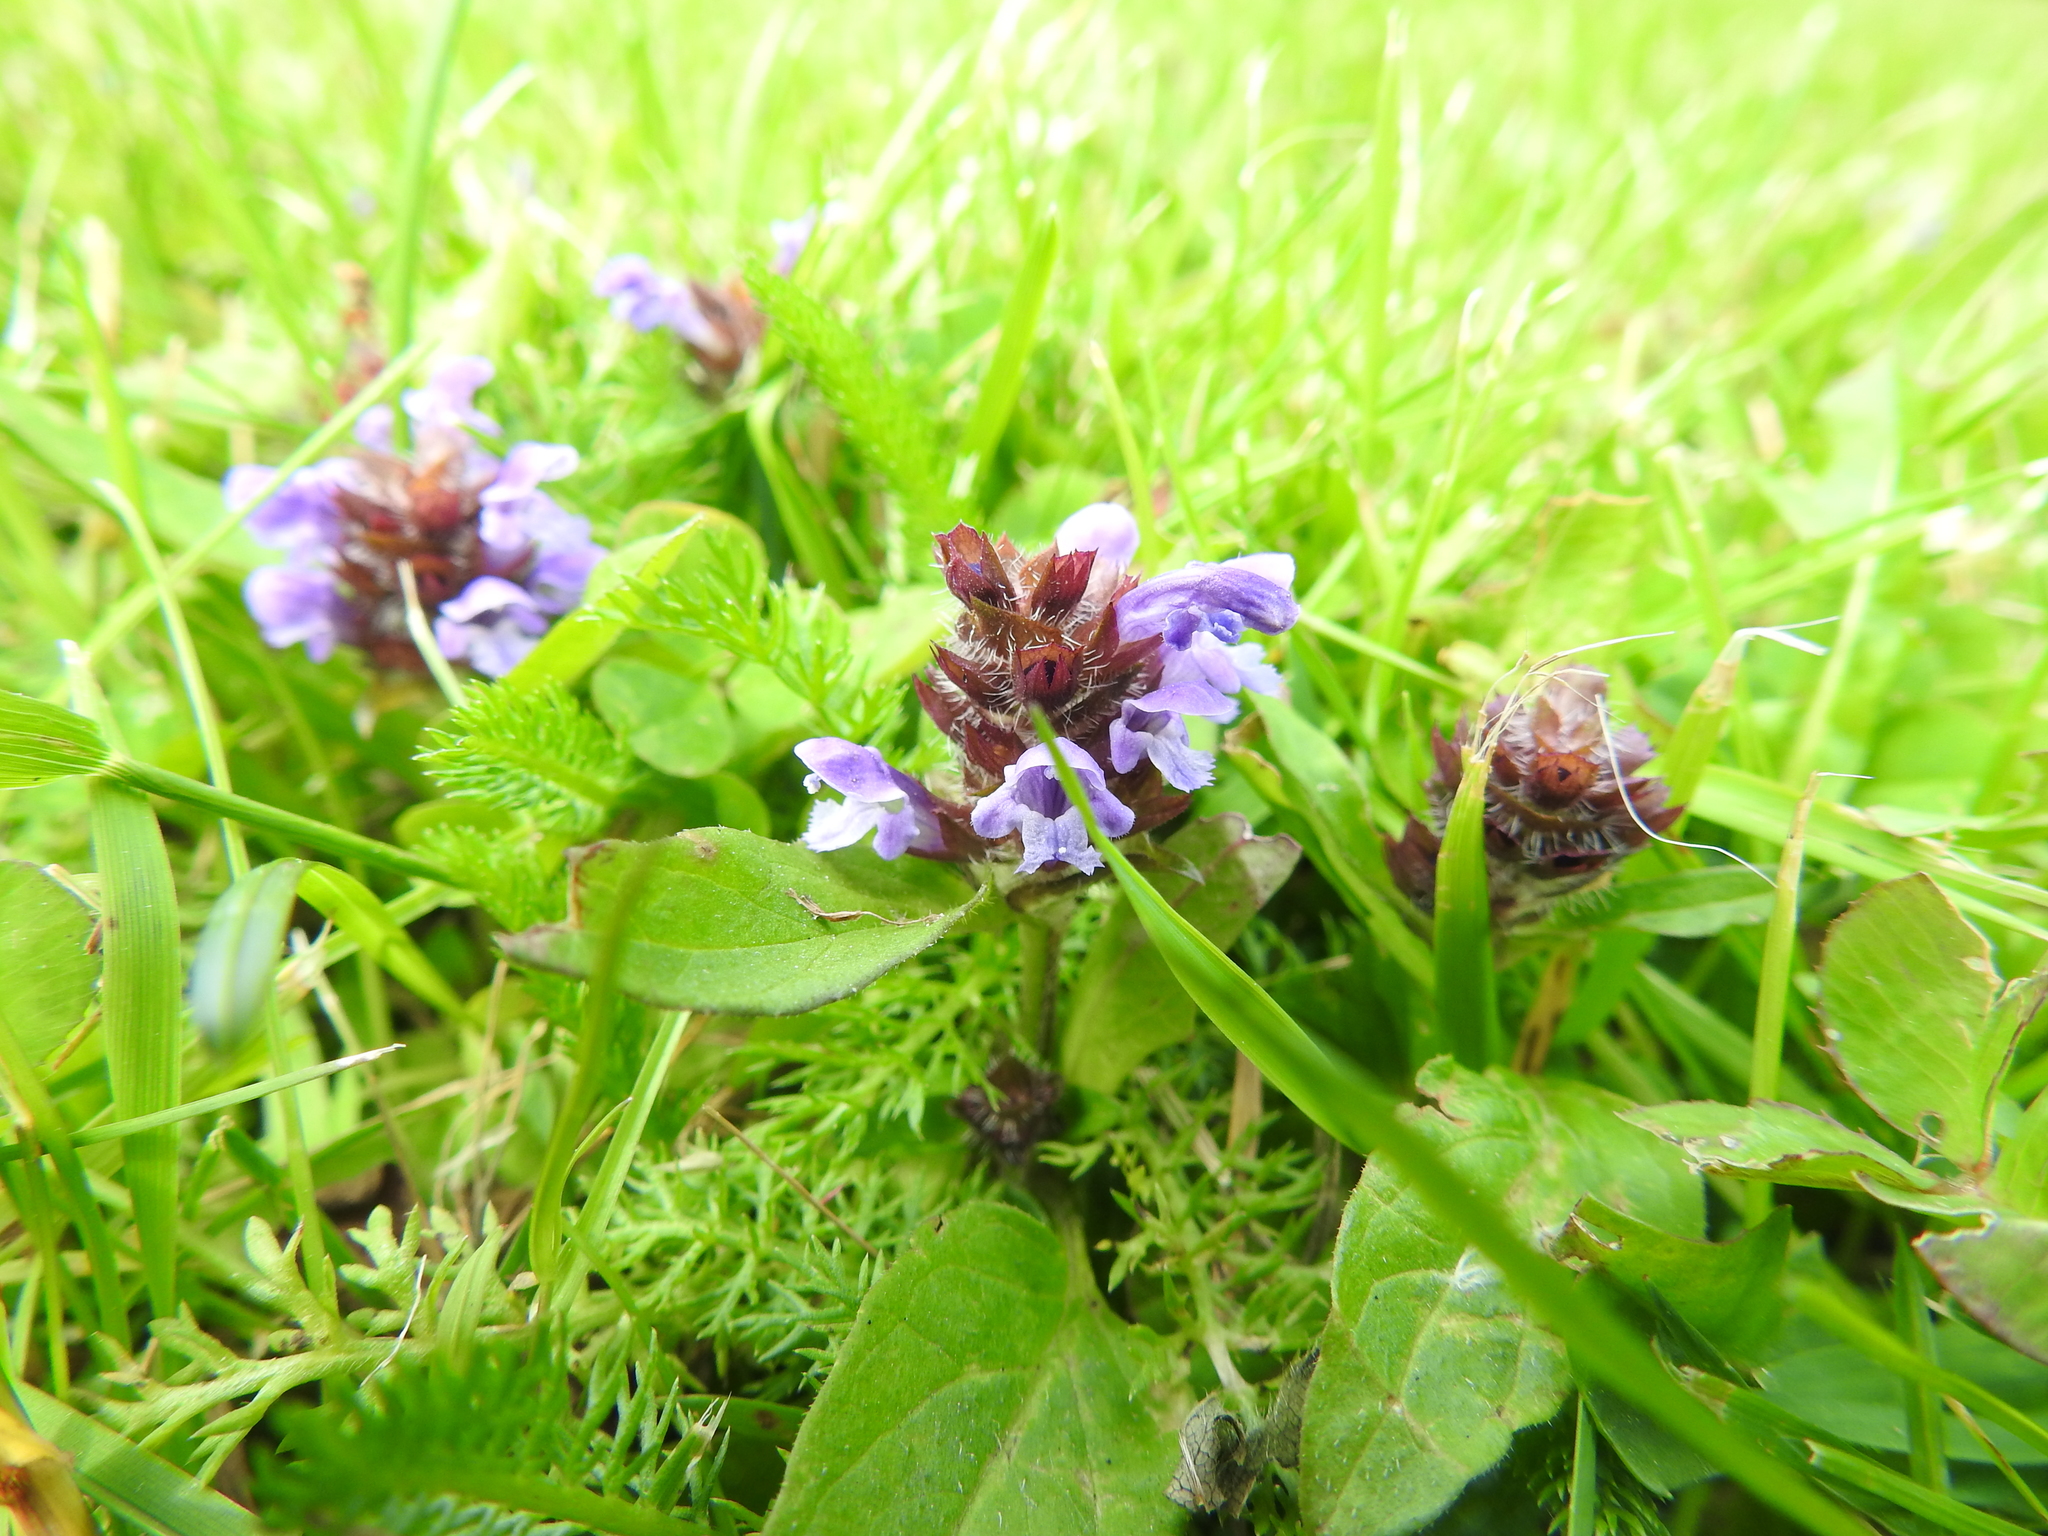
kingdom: Plantae
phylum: Tracheophyta
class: Magnoliopsida
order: Lamiales
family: Lamiaceae
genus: Prunella
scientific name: Prunella vulgaris
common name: Heal-all
